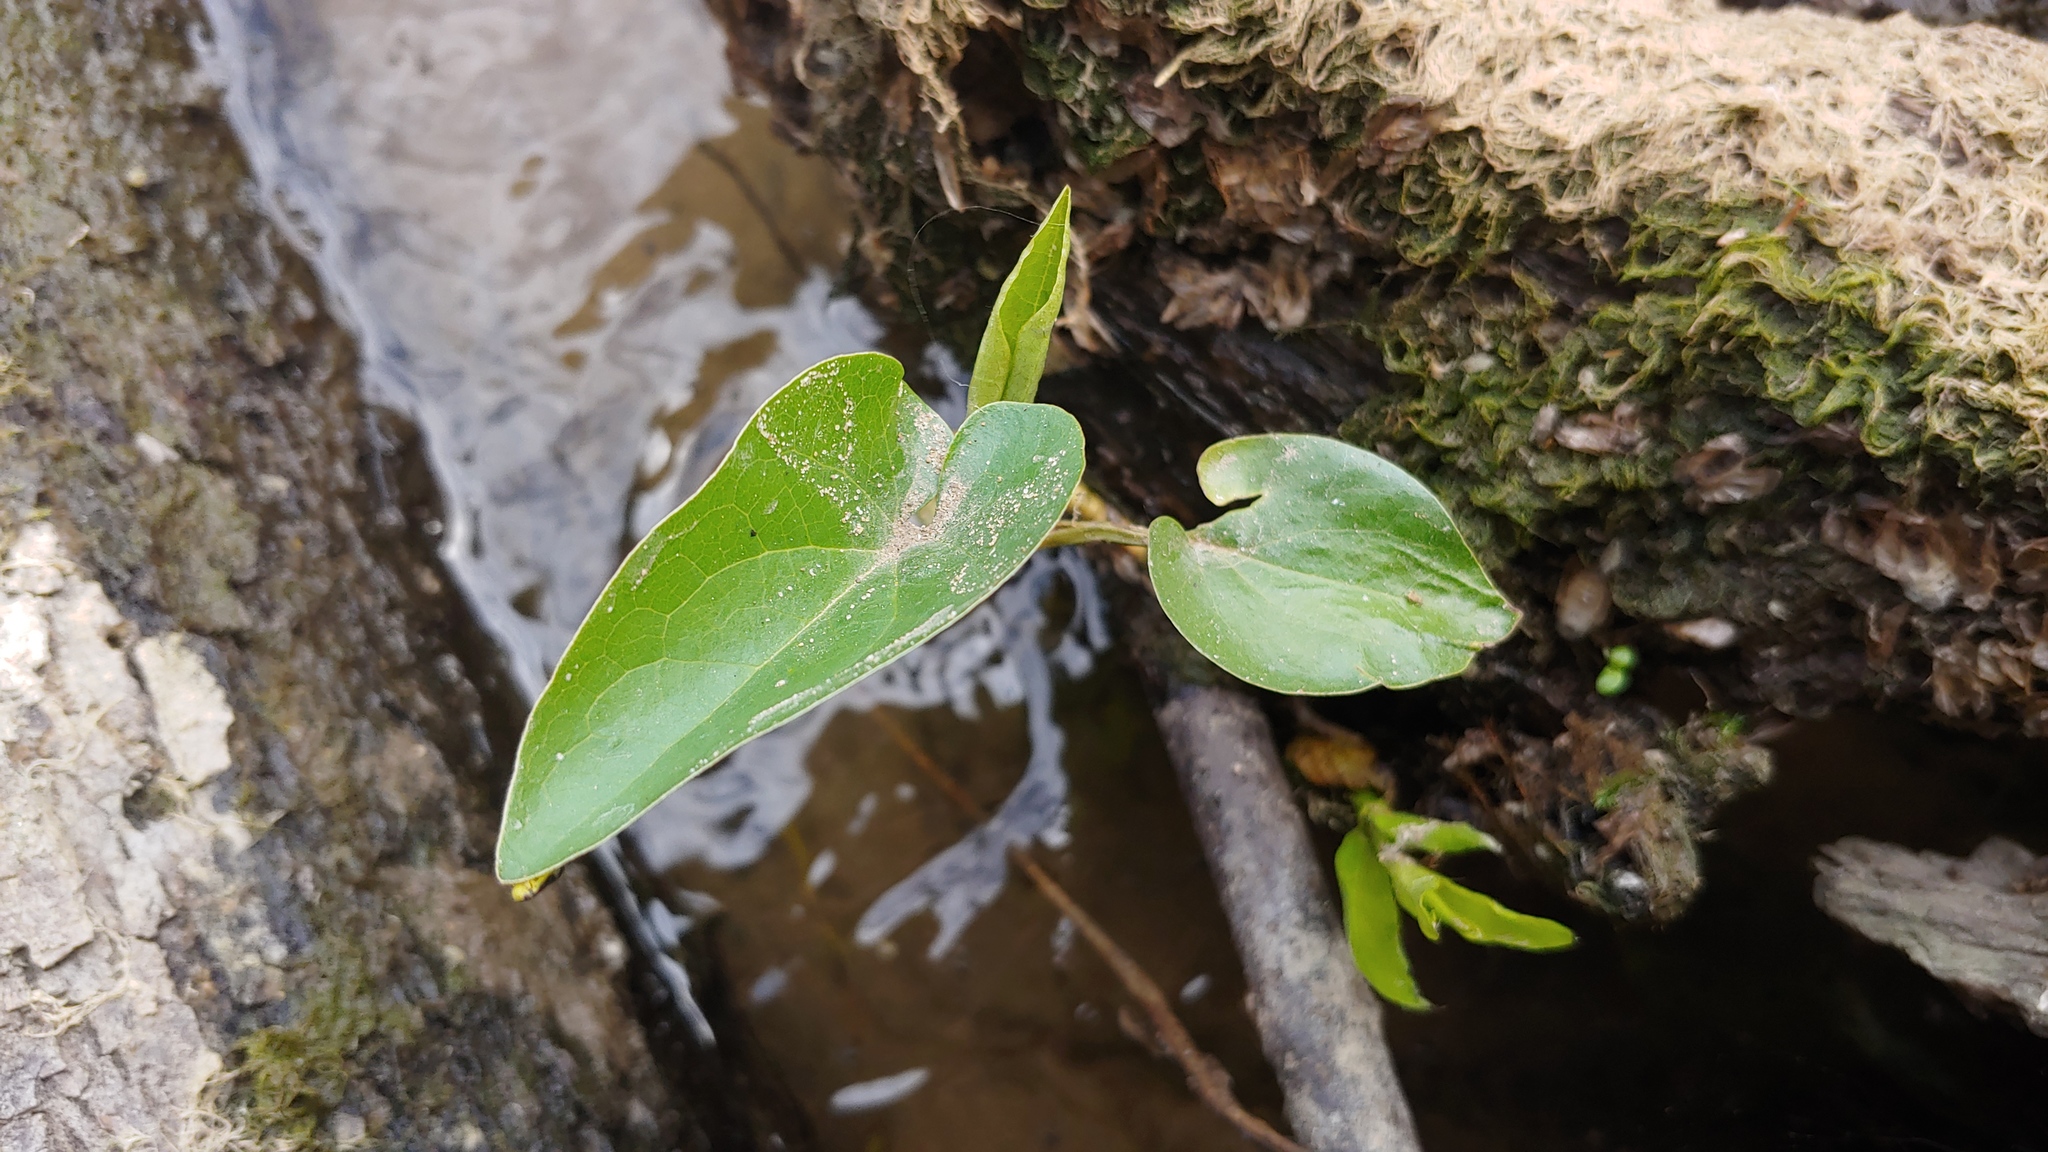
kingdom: Plantae
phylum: Tracheophyta
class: Magnoliopsida
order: Piperales
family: Saururaceae
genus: Saururus
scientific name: Saururus cernuus
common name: Lizard's-tail
